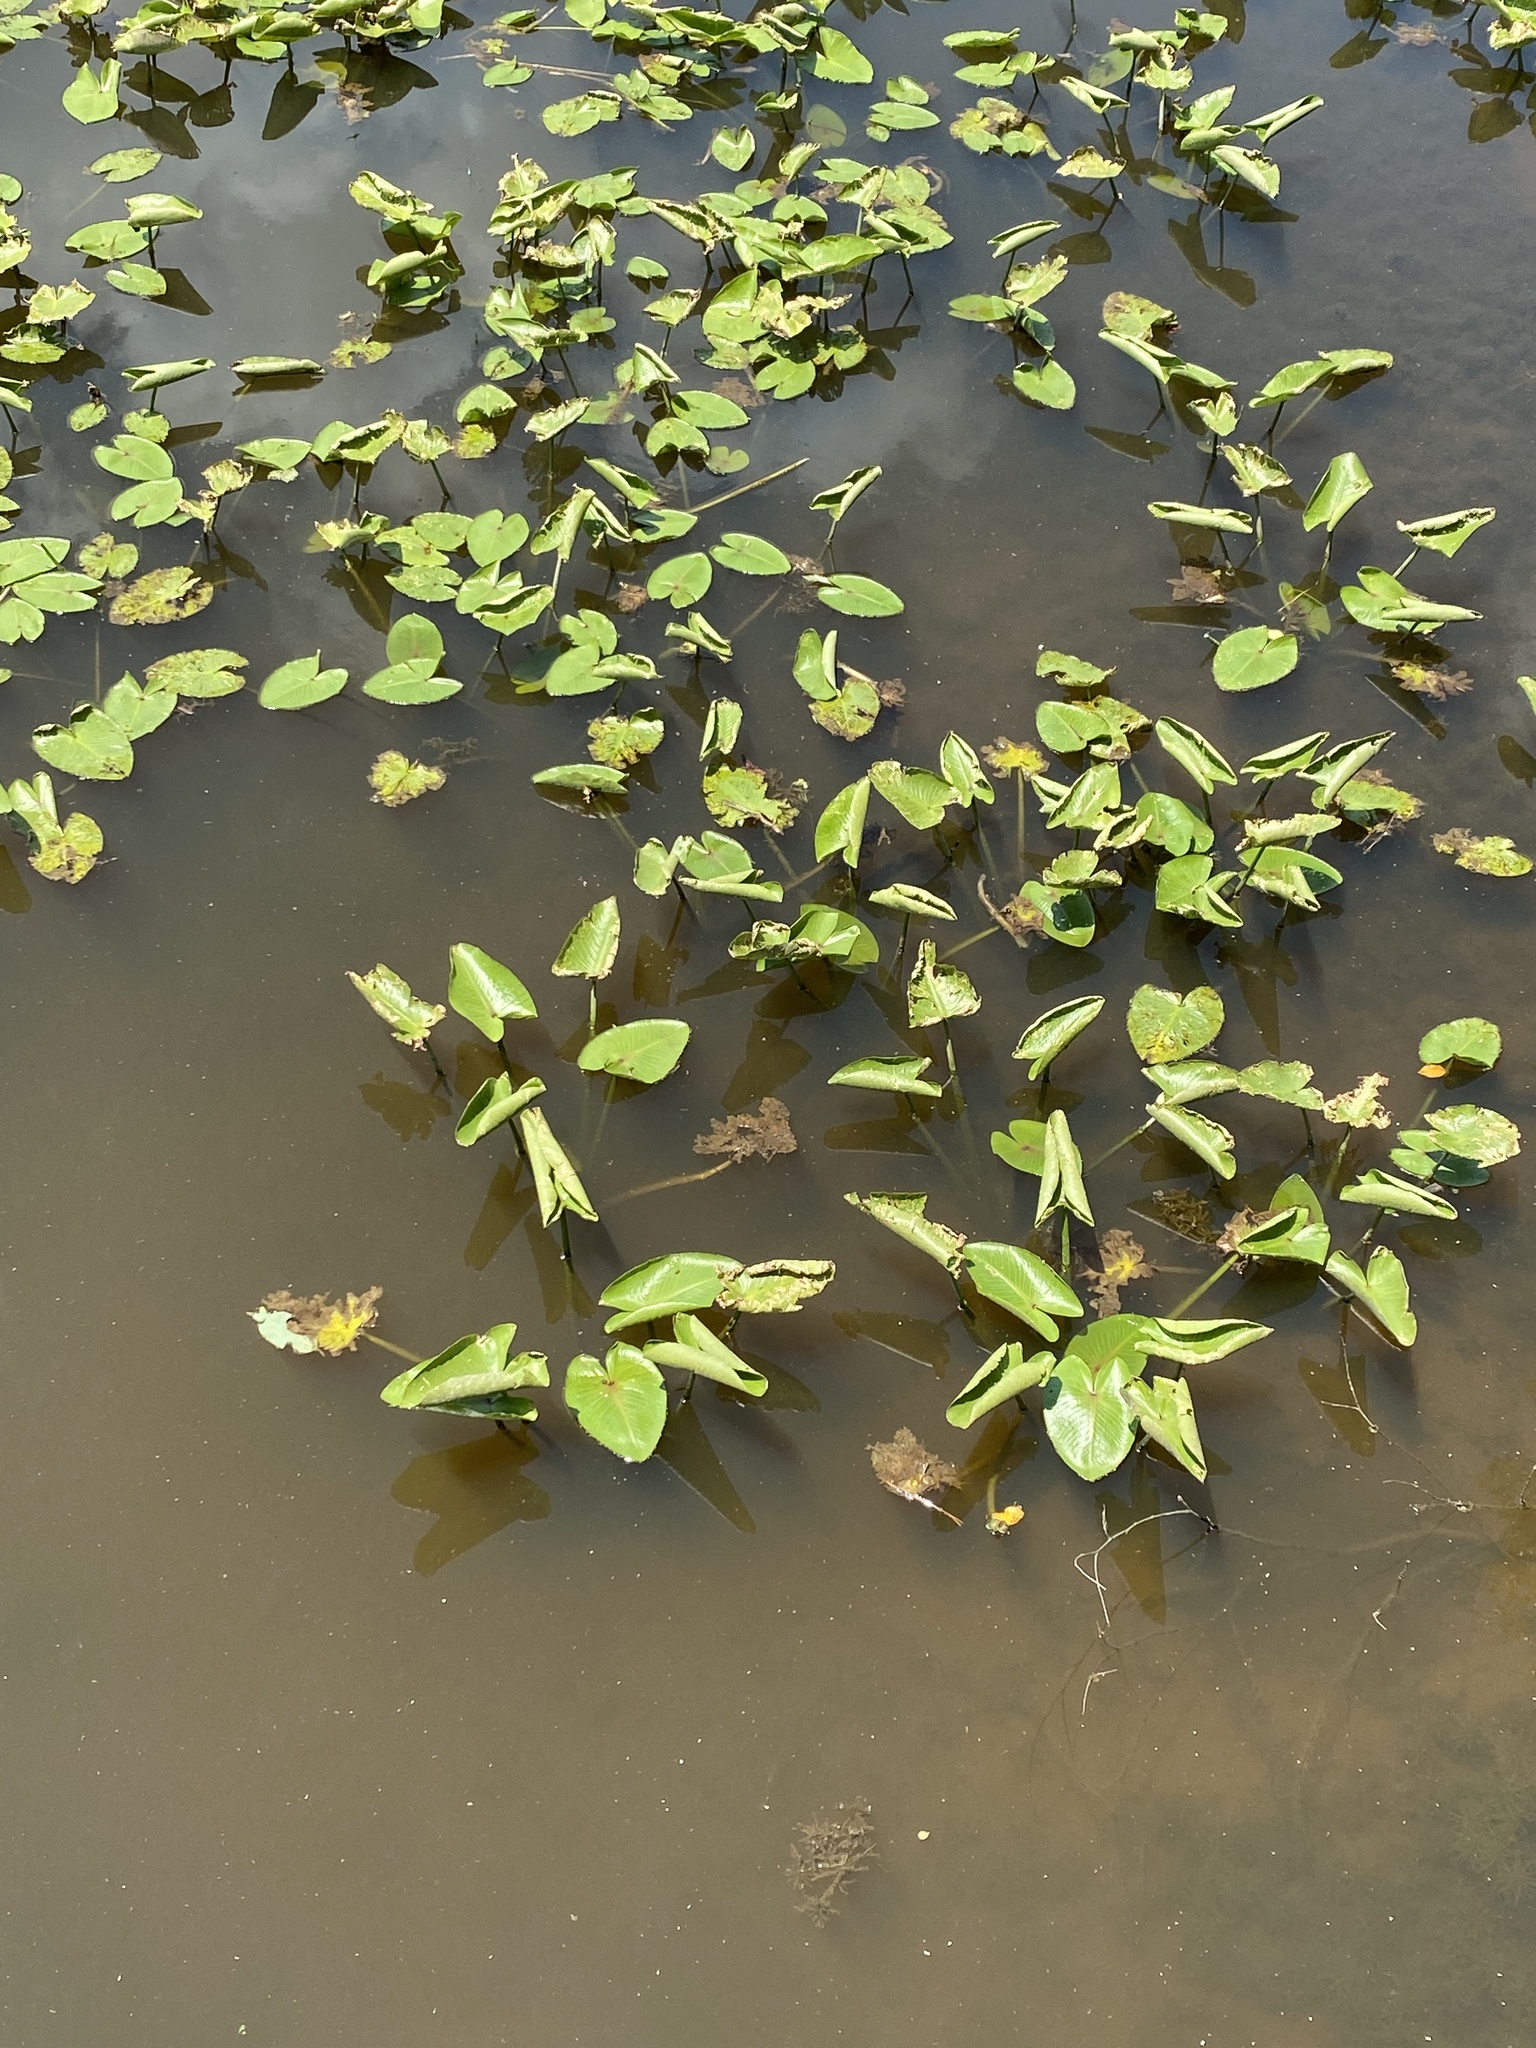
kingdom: Plantae
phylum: Tracheophyta
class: Magnoliopsida
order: Nymphaeales
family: Nymphaeaceae
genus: Nuphar
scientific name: Nuphar advena
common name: Spatter-dock
